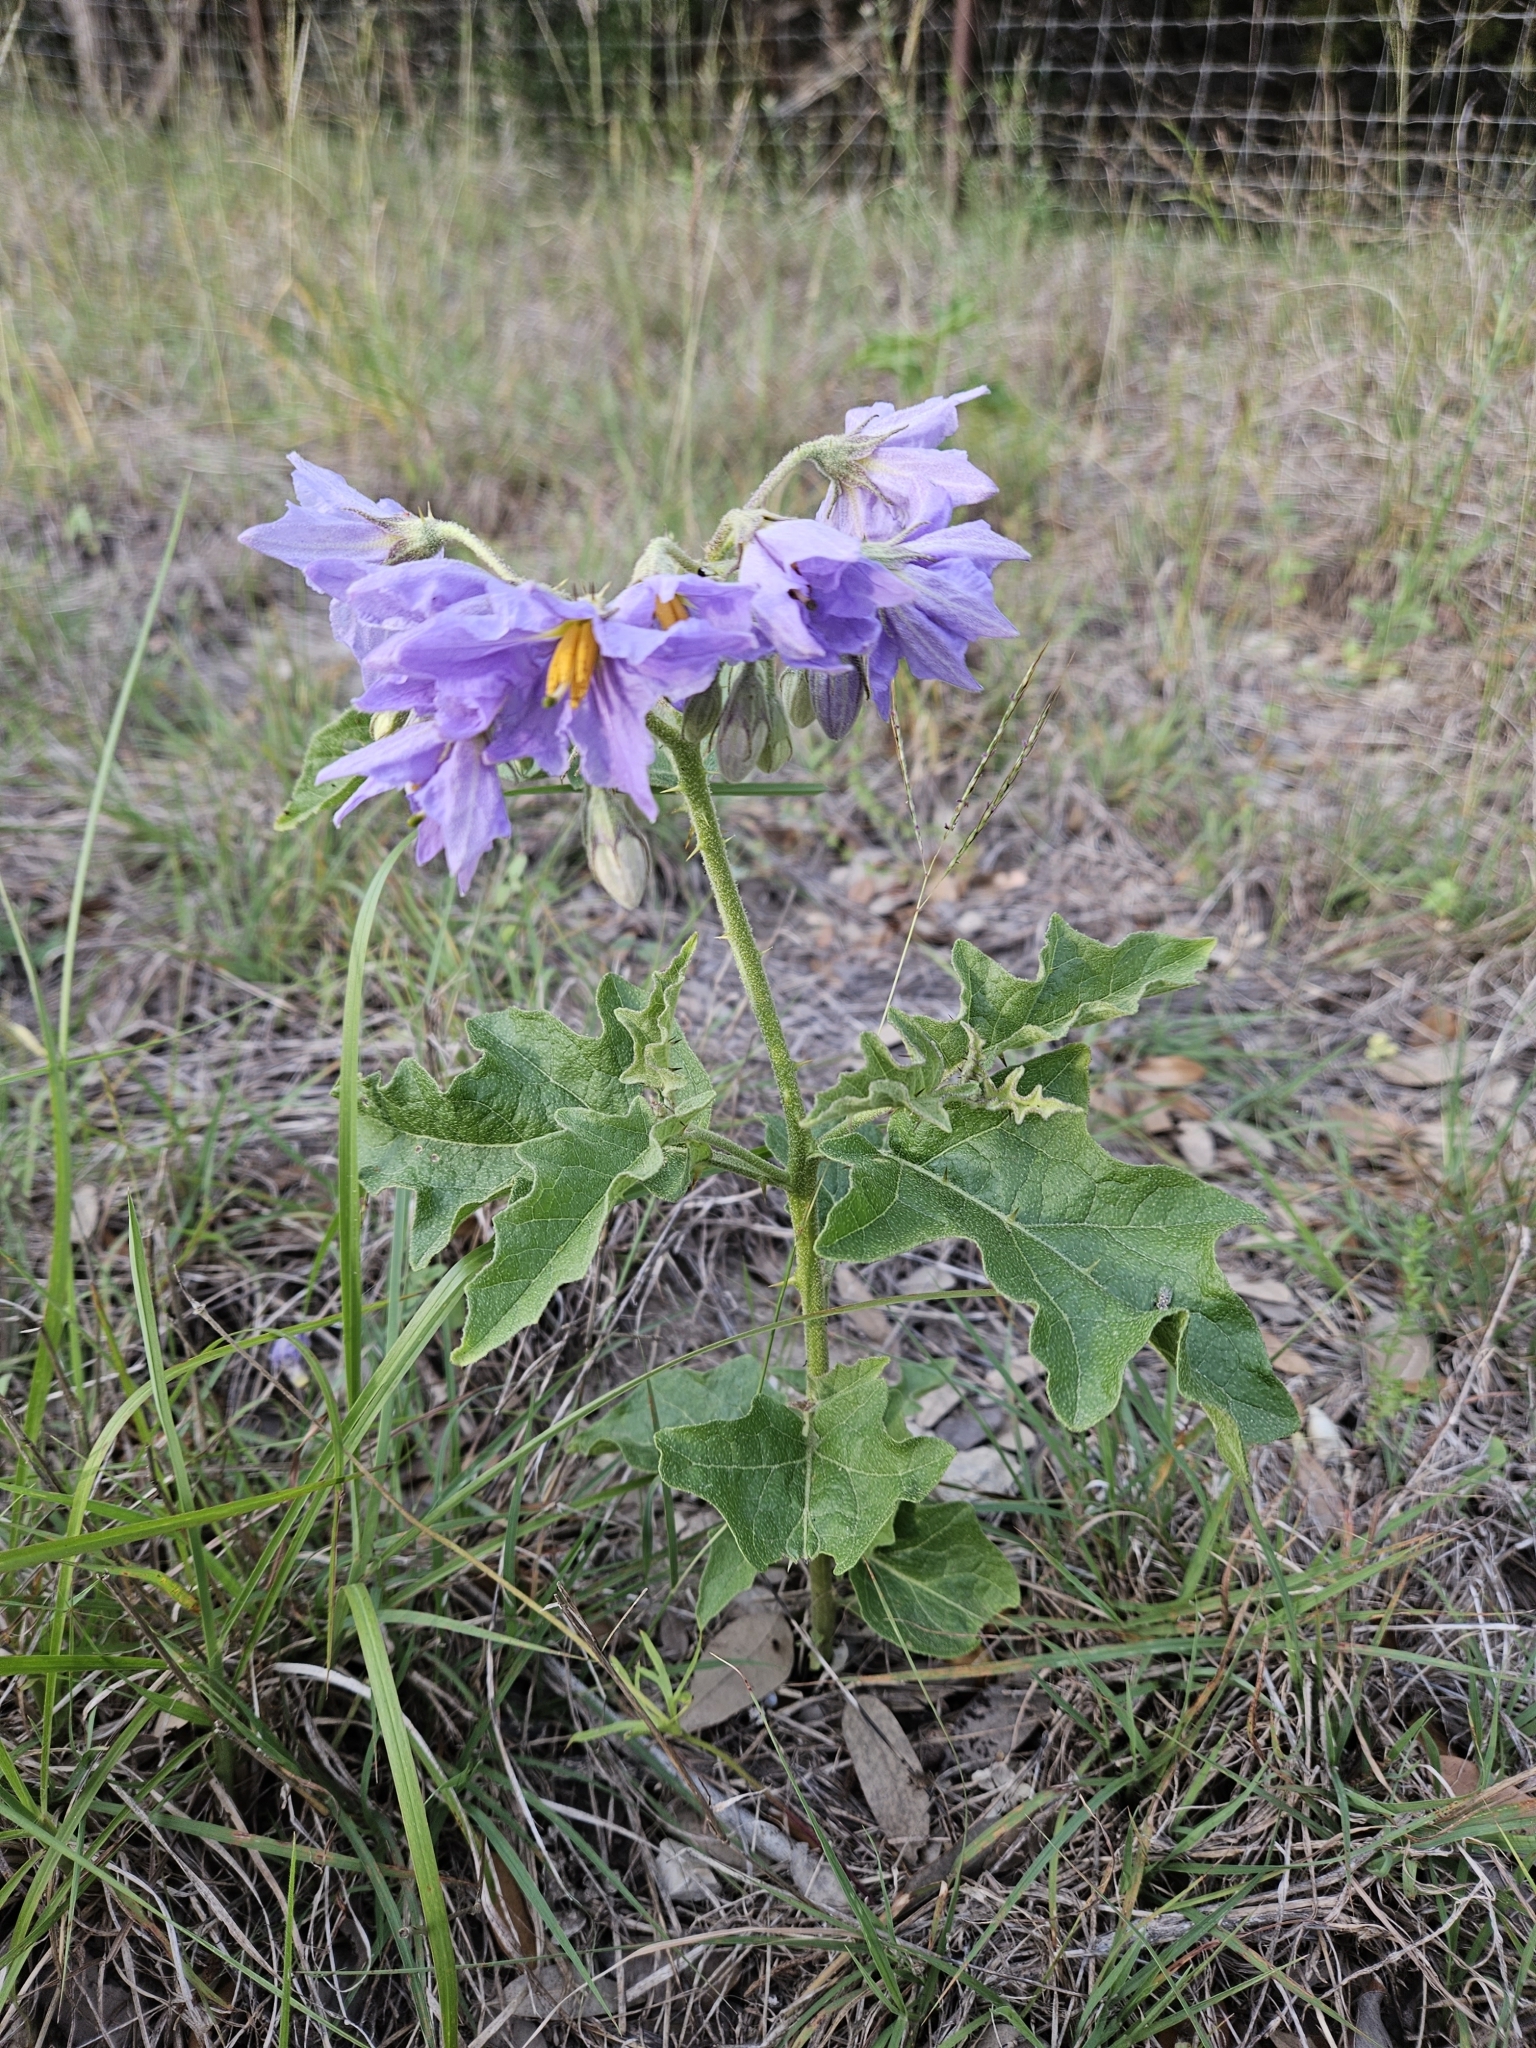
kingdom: Plantae
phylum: Tracheophyta
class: Magnoliopsida
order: Solanales
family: Solanaceae
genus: Solanum
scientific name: Solanum dimidiatum
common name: Carolina horse-nettle
